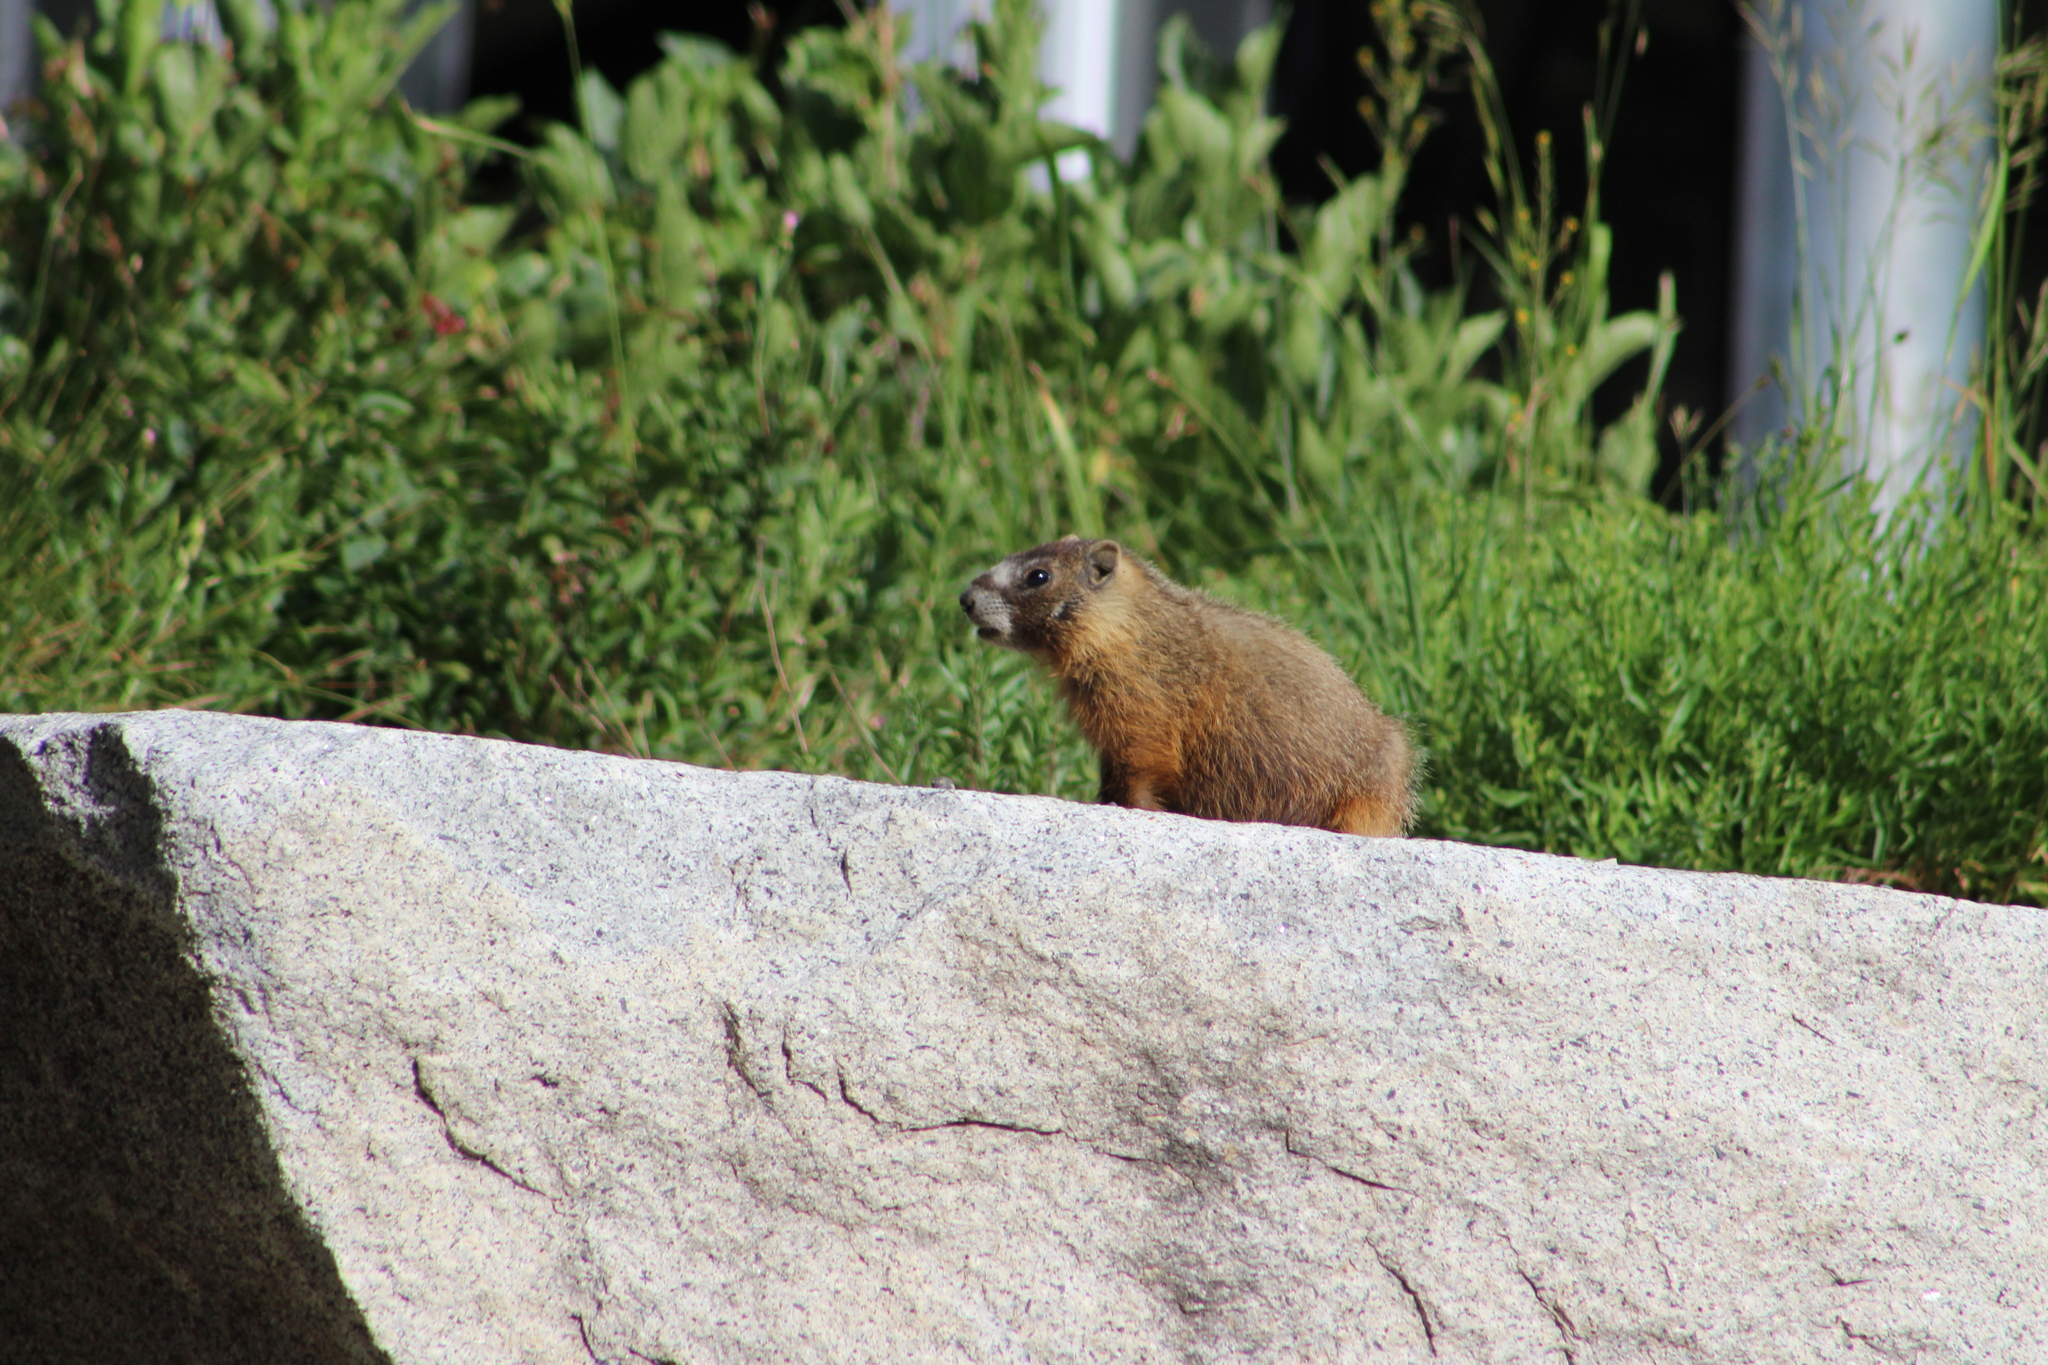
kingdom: Animalia
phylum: Chordata
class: Mammalia
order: Rodentia
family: Sciuridae
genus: Marmota
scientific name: Marmota flaviventris
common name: Yellow-bellied marmot
